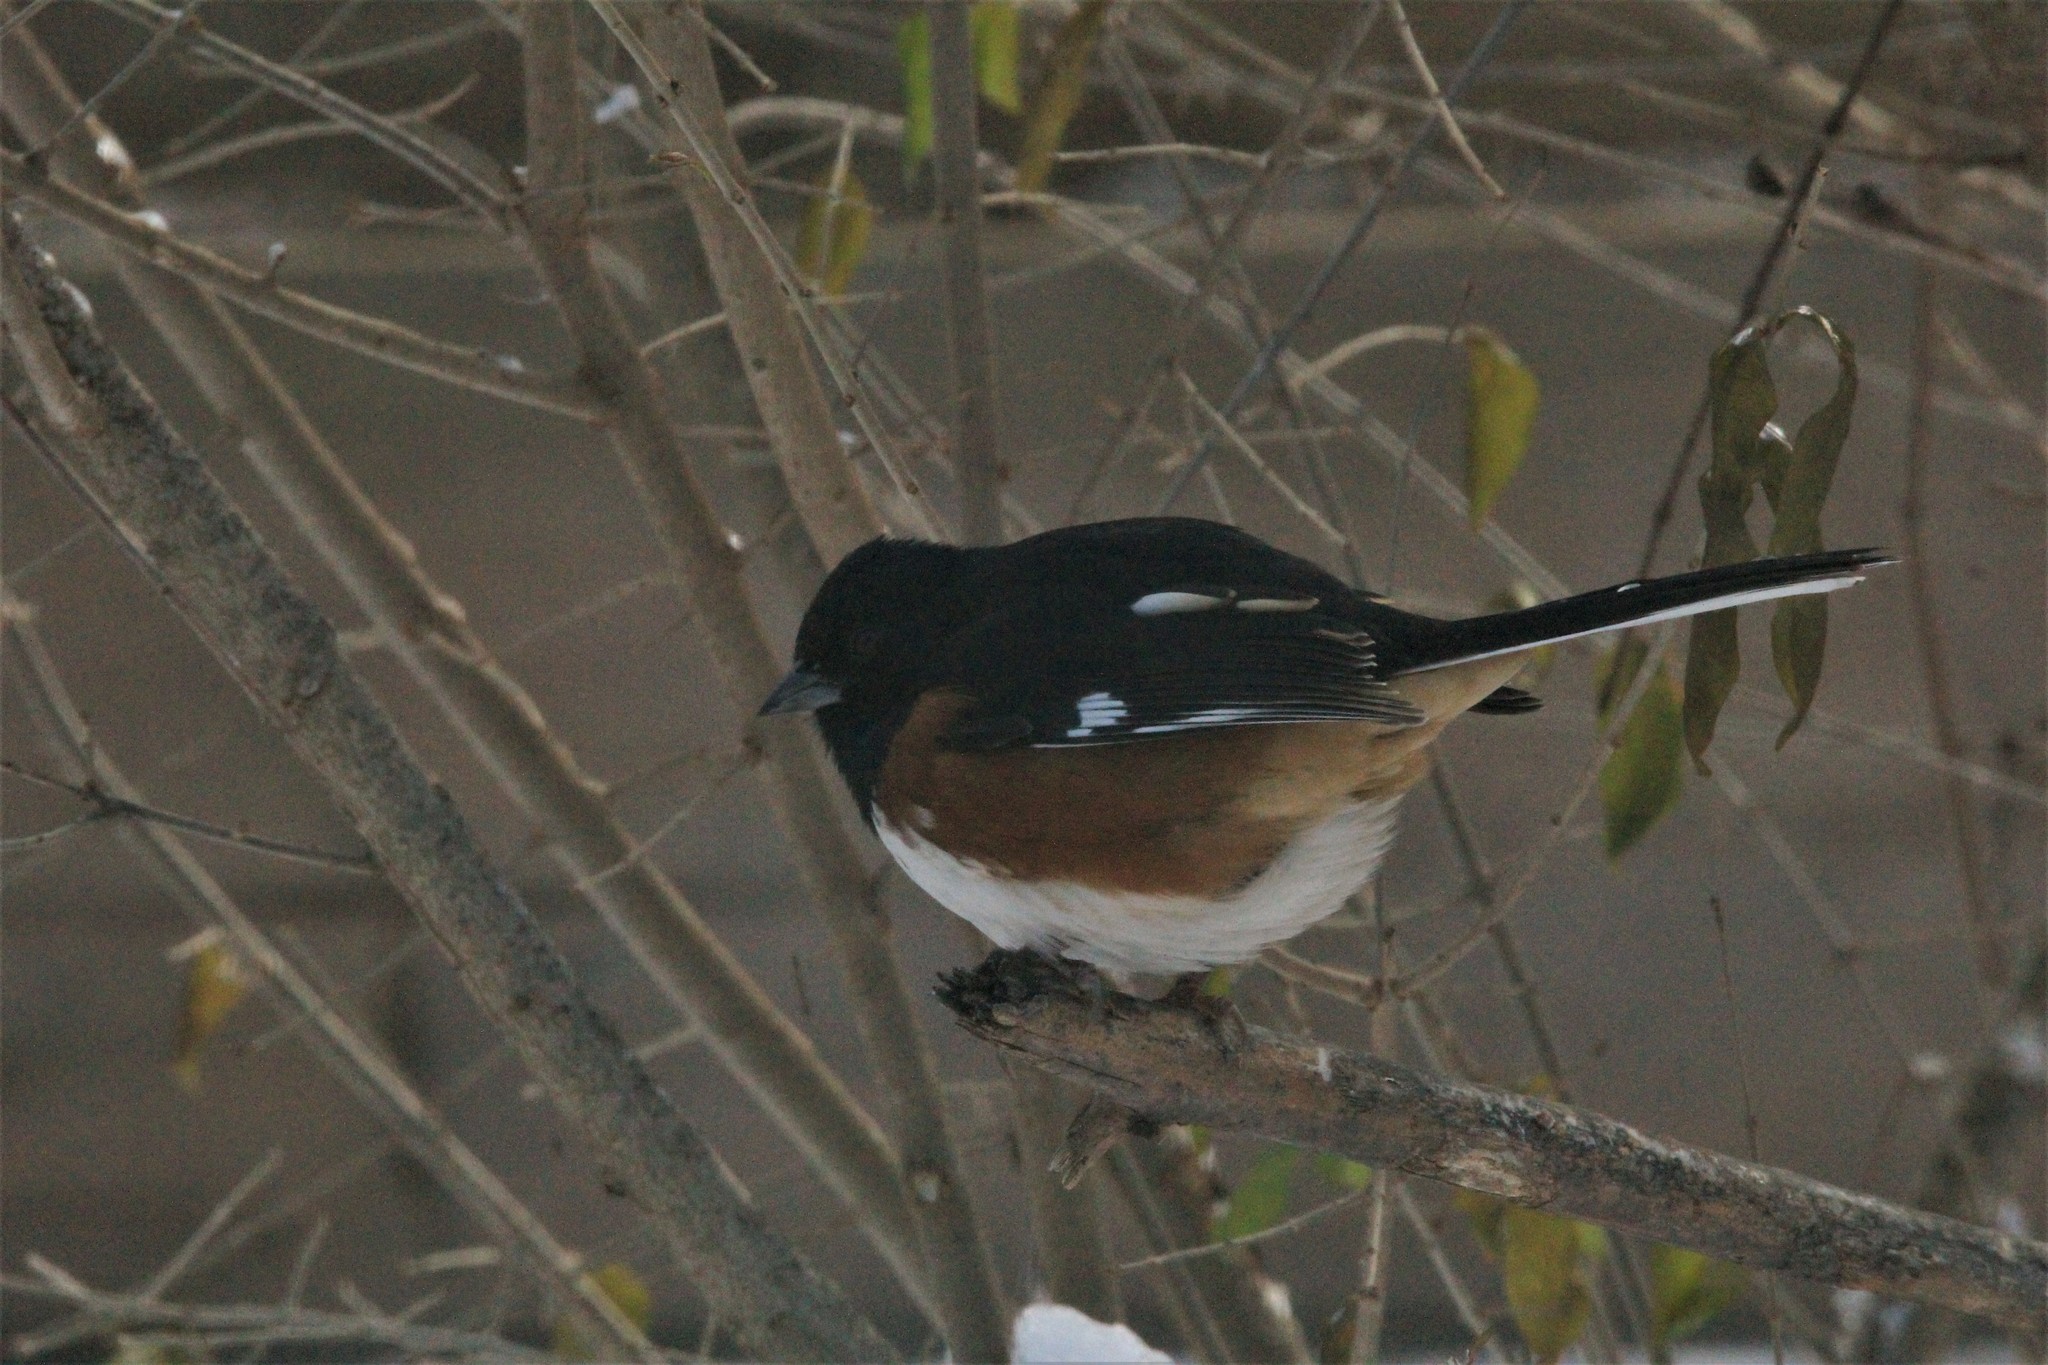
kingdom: Animalia
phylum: Chordata
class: Aves
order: Passeriformes
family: Passerellidae
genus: Pipilo
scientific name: Pipilo erythrophthalmus
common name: Eastern towhee
